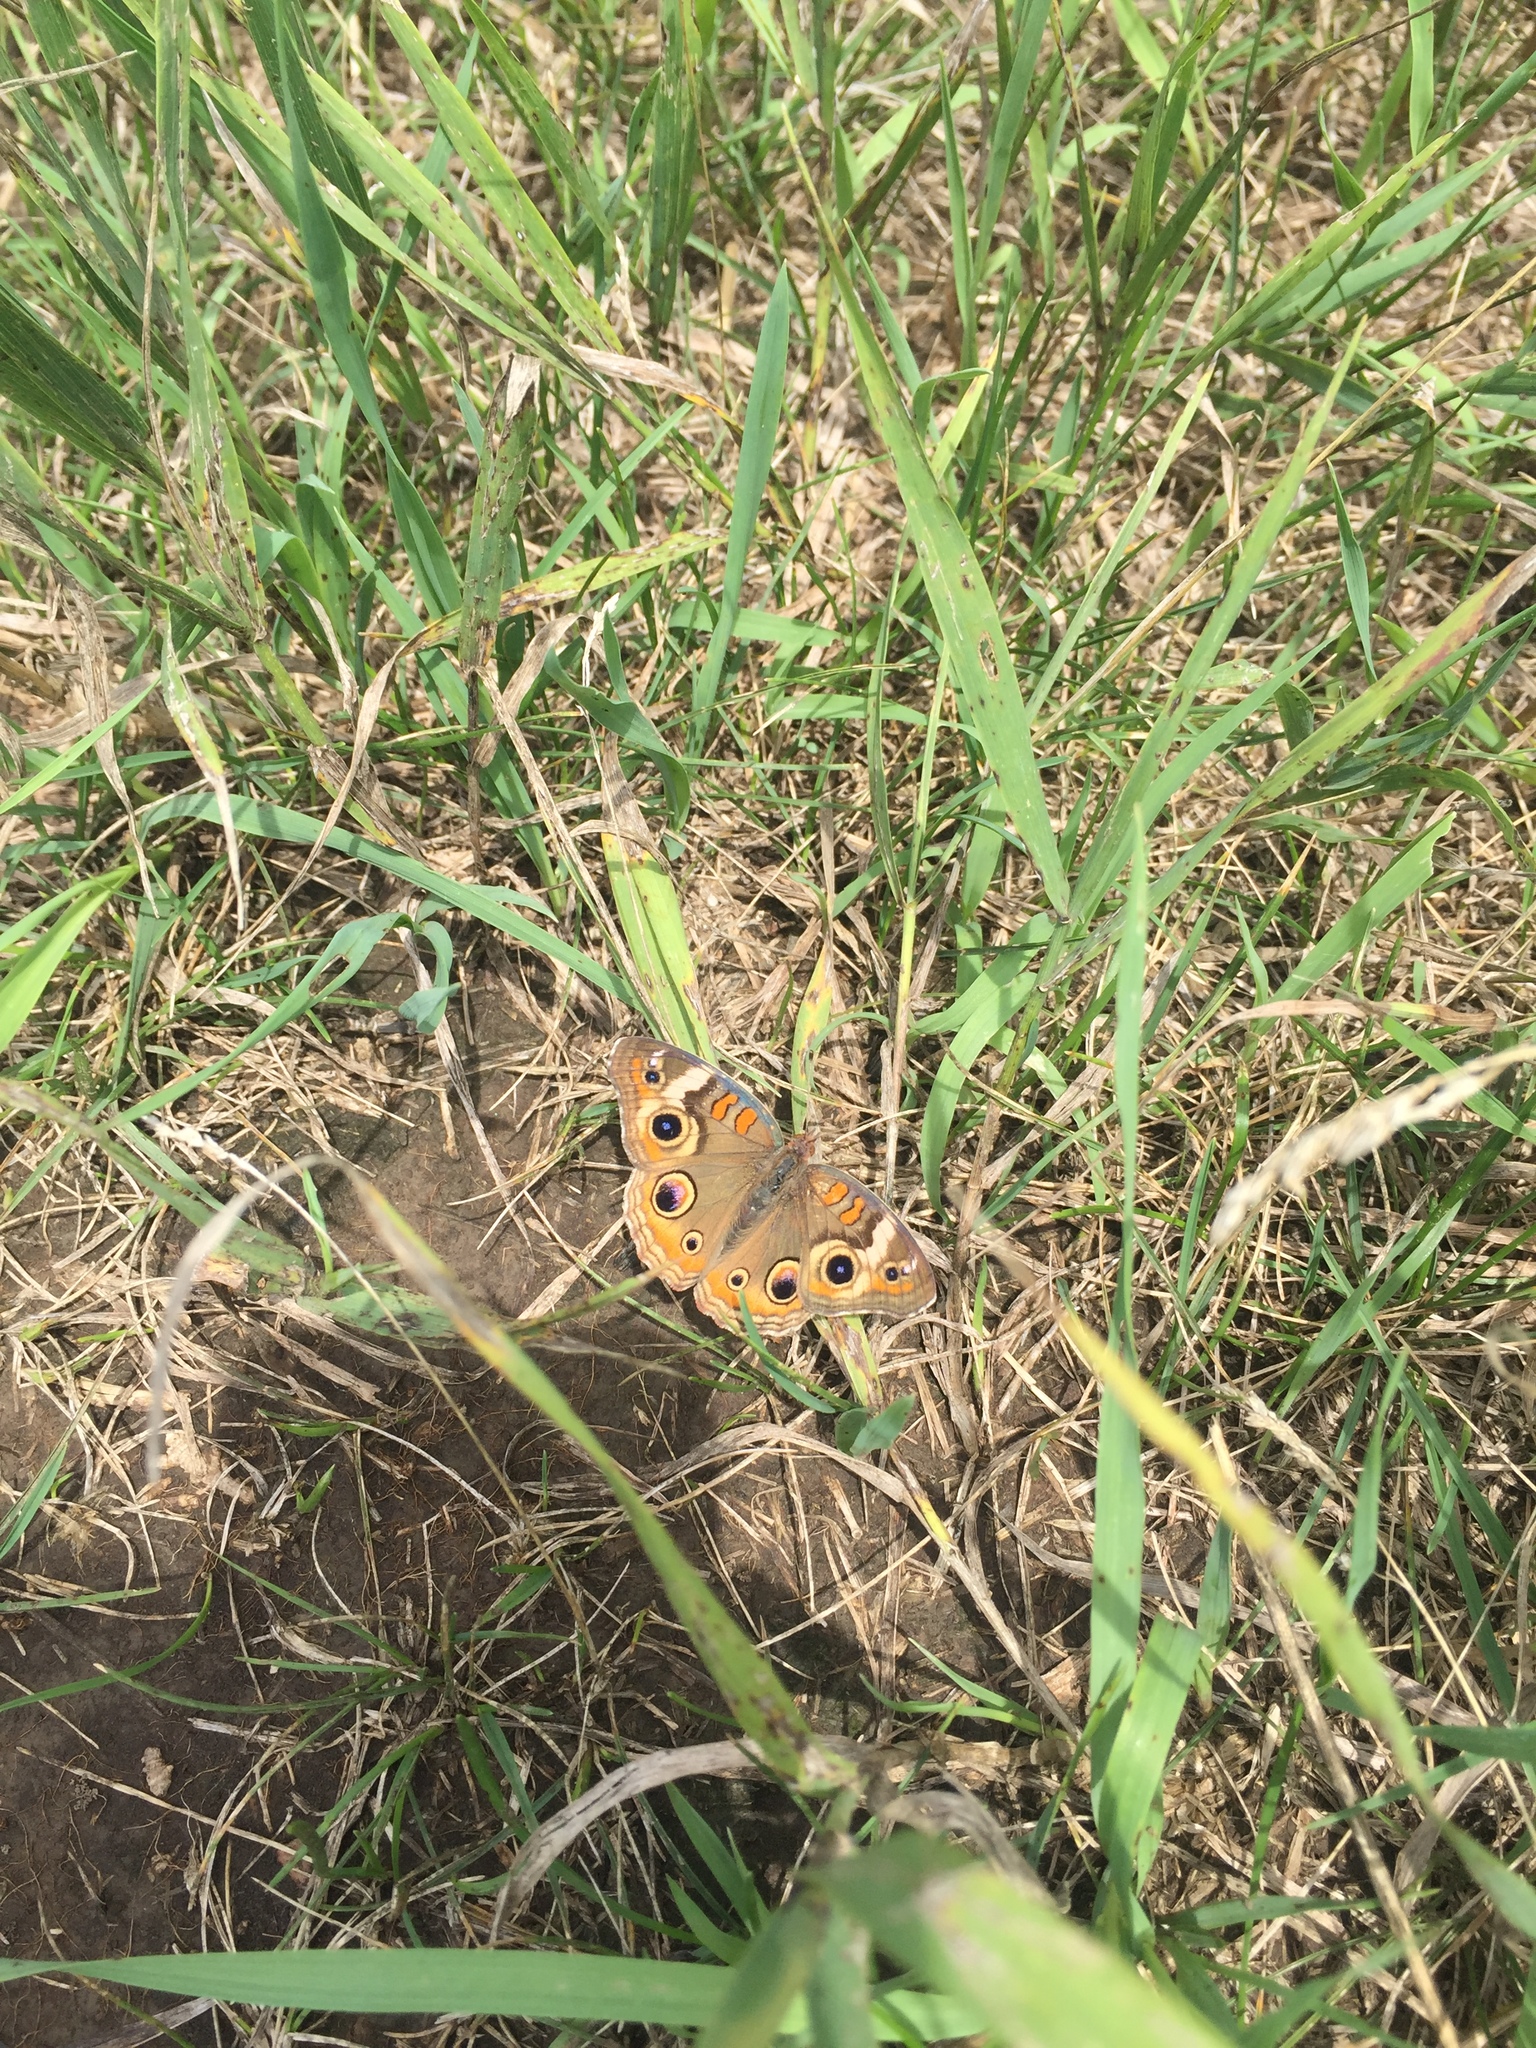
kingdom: Animalia
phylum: Arthropoda
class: Insecta
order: Lepidoptera
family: Nymphalidae
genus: Junonia
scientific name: Junonia coenia
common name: Common buckeye
